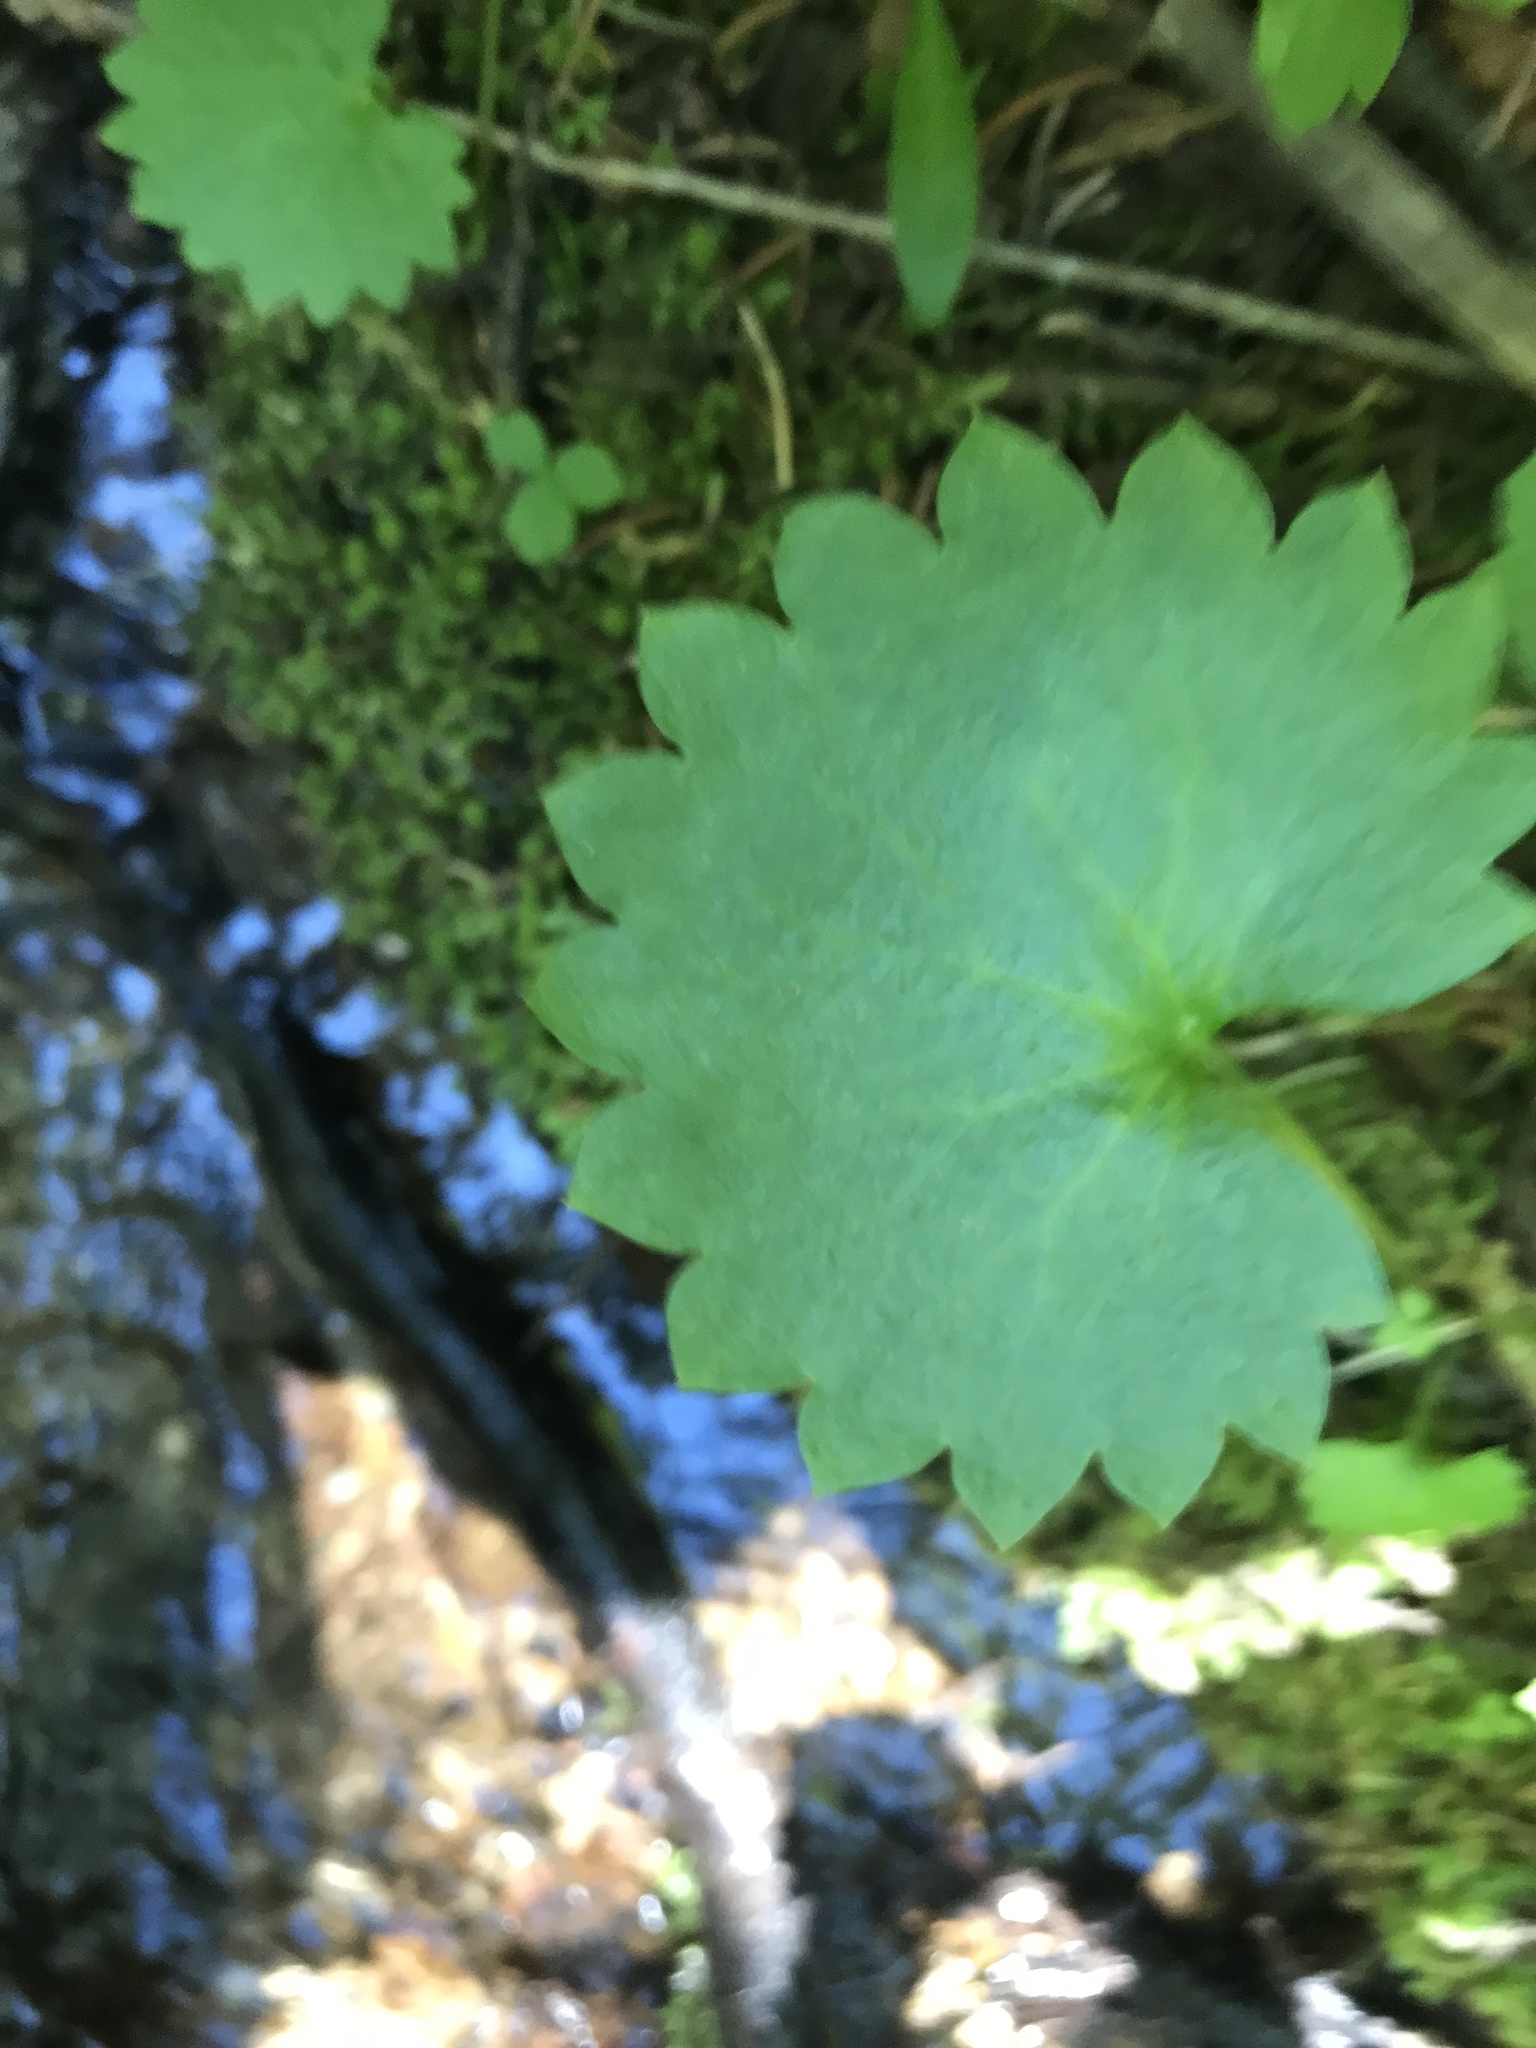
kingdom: Plantae
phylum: Tracheophyta
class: Magnoliopsida
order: Saxifragales
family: Saxifragaceae
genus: Micranthes
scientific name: Micranthes odontoloma
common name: Brook saxifrage
